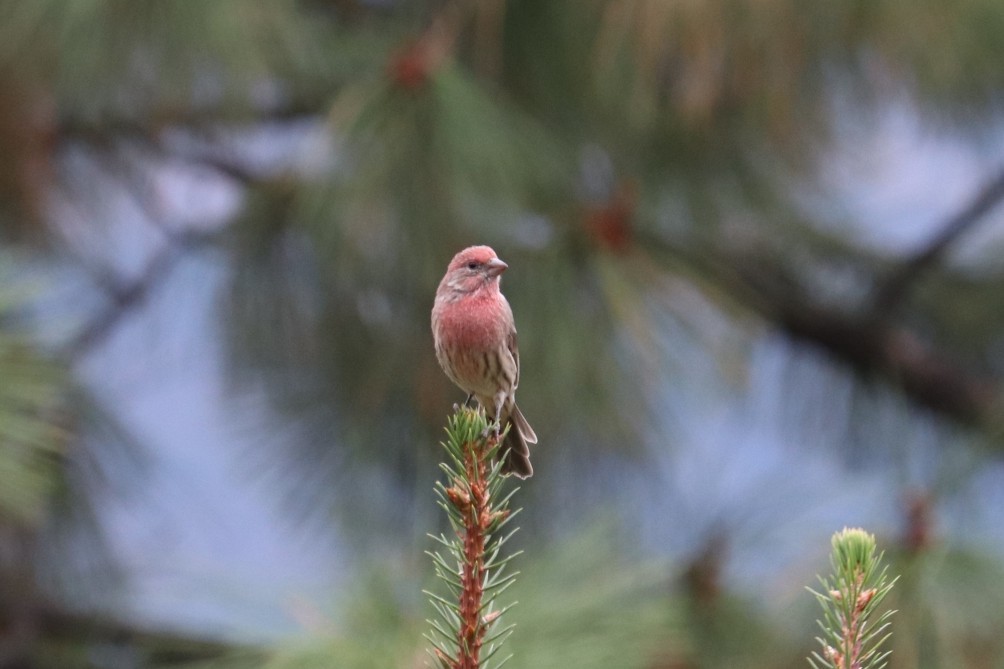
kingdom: Animalia
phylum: Chordata
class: Aves
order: Passeriformes
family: Fringillidae
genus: Haemorhous
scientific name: Haemorhous mexicanus
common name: House finch
